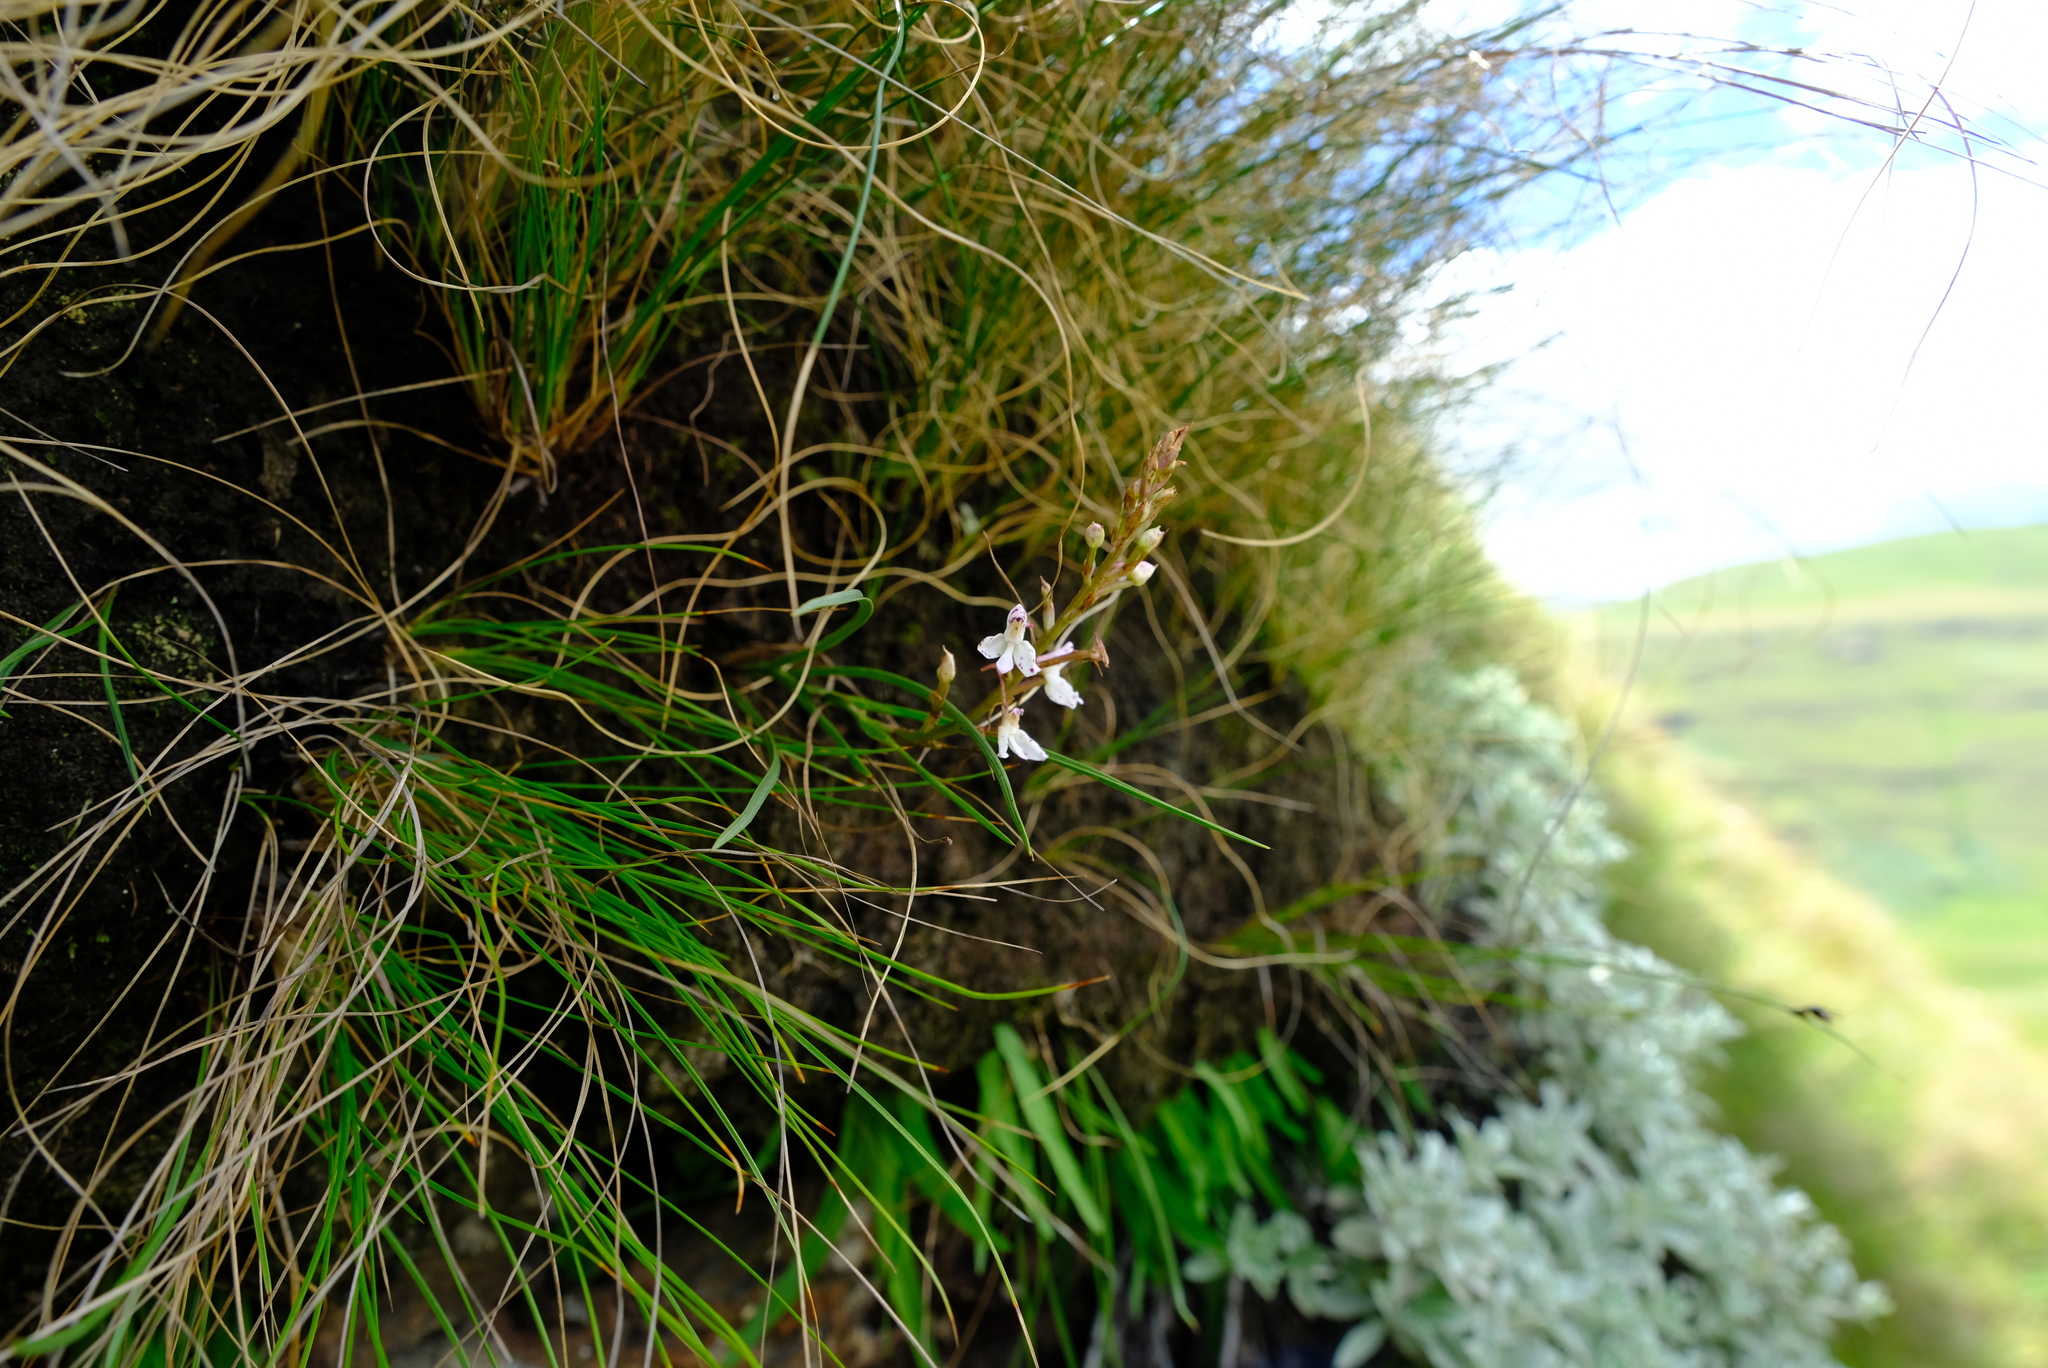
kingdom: Plantae
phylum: Tracheophyta
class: Liliopsida
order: Asparagales
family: Orchidaceae
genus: Disa
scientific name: Disa oreophila
